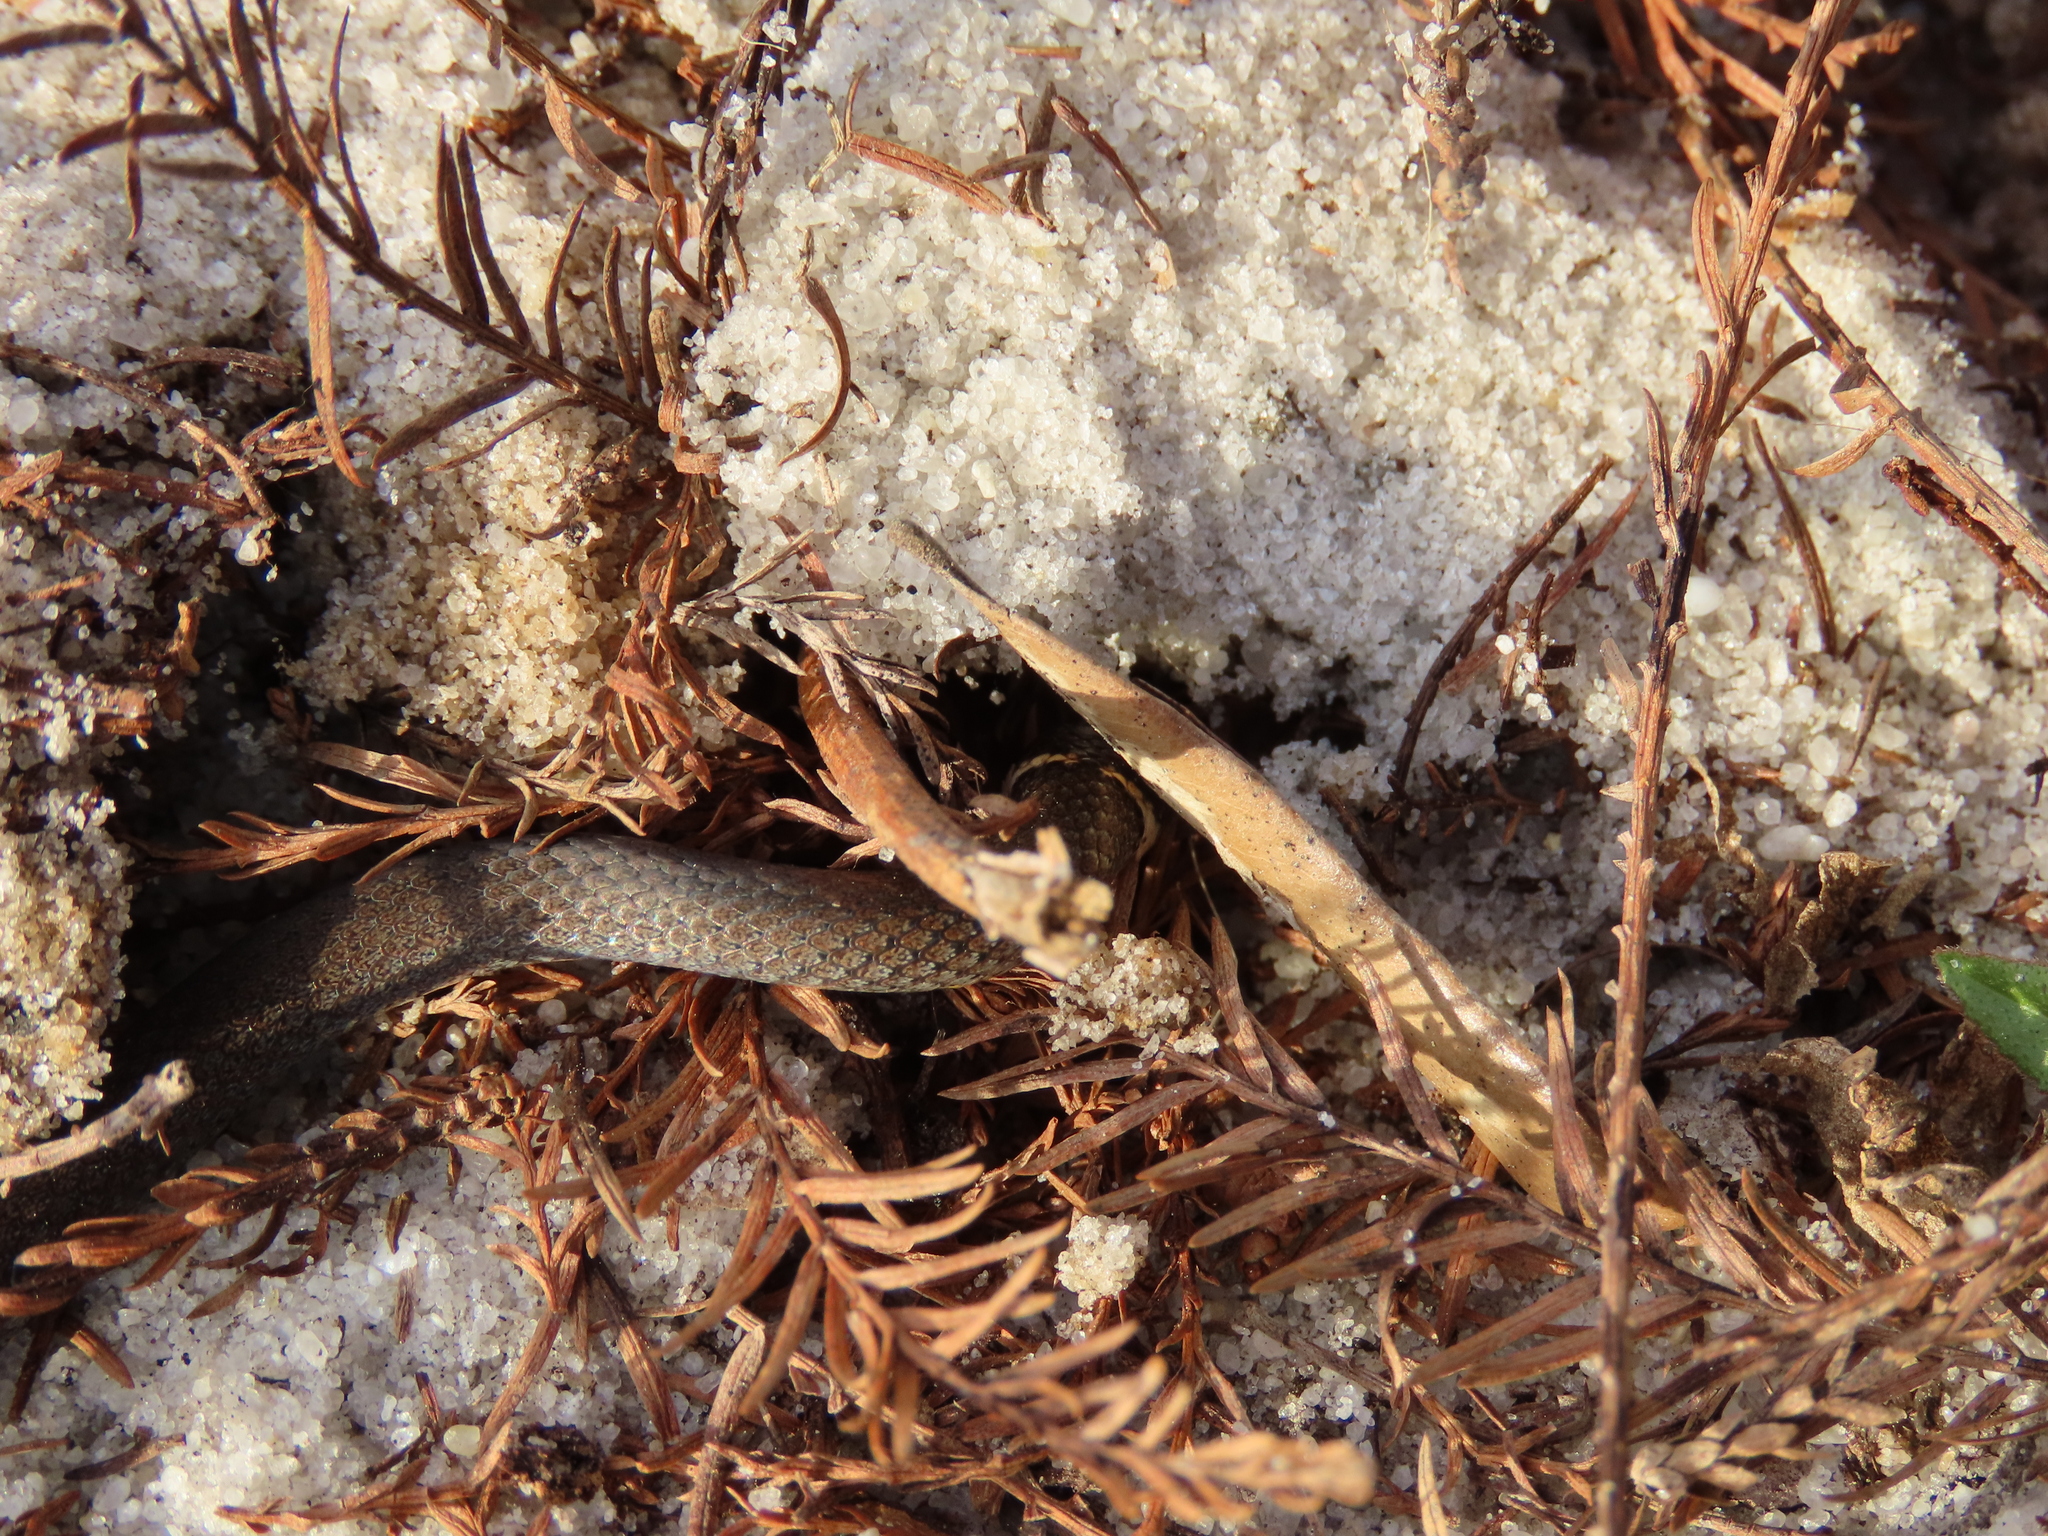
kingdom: Animalia
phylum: Chordata
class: Squamata
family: Colubridae
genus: Diadophis
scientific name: Diadophis punctatus
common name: Ringneck snake
